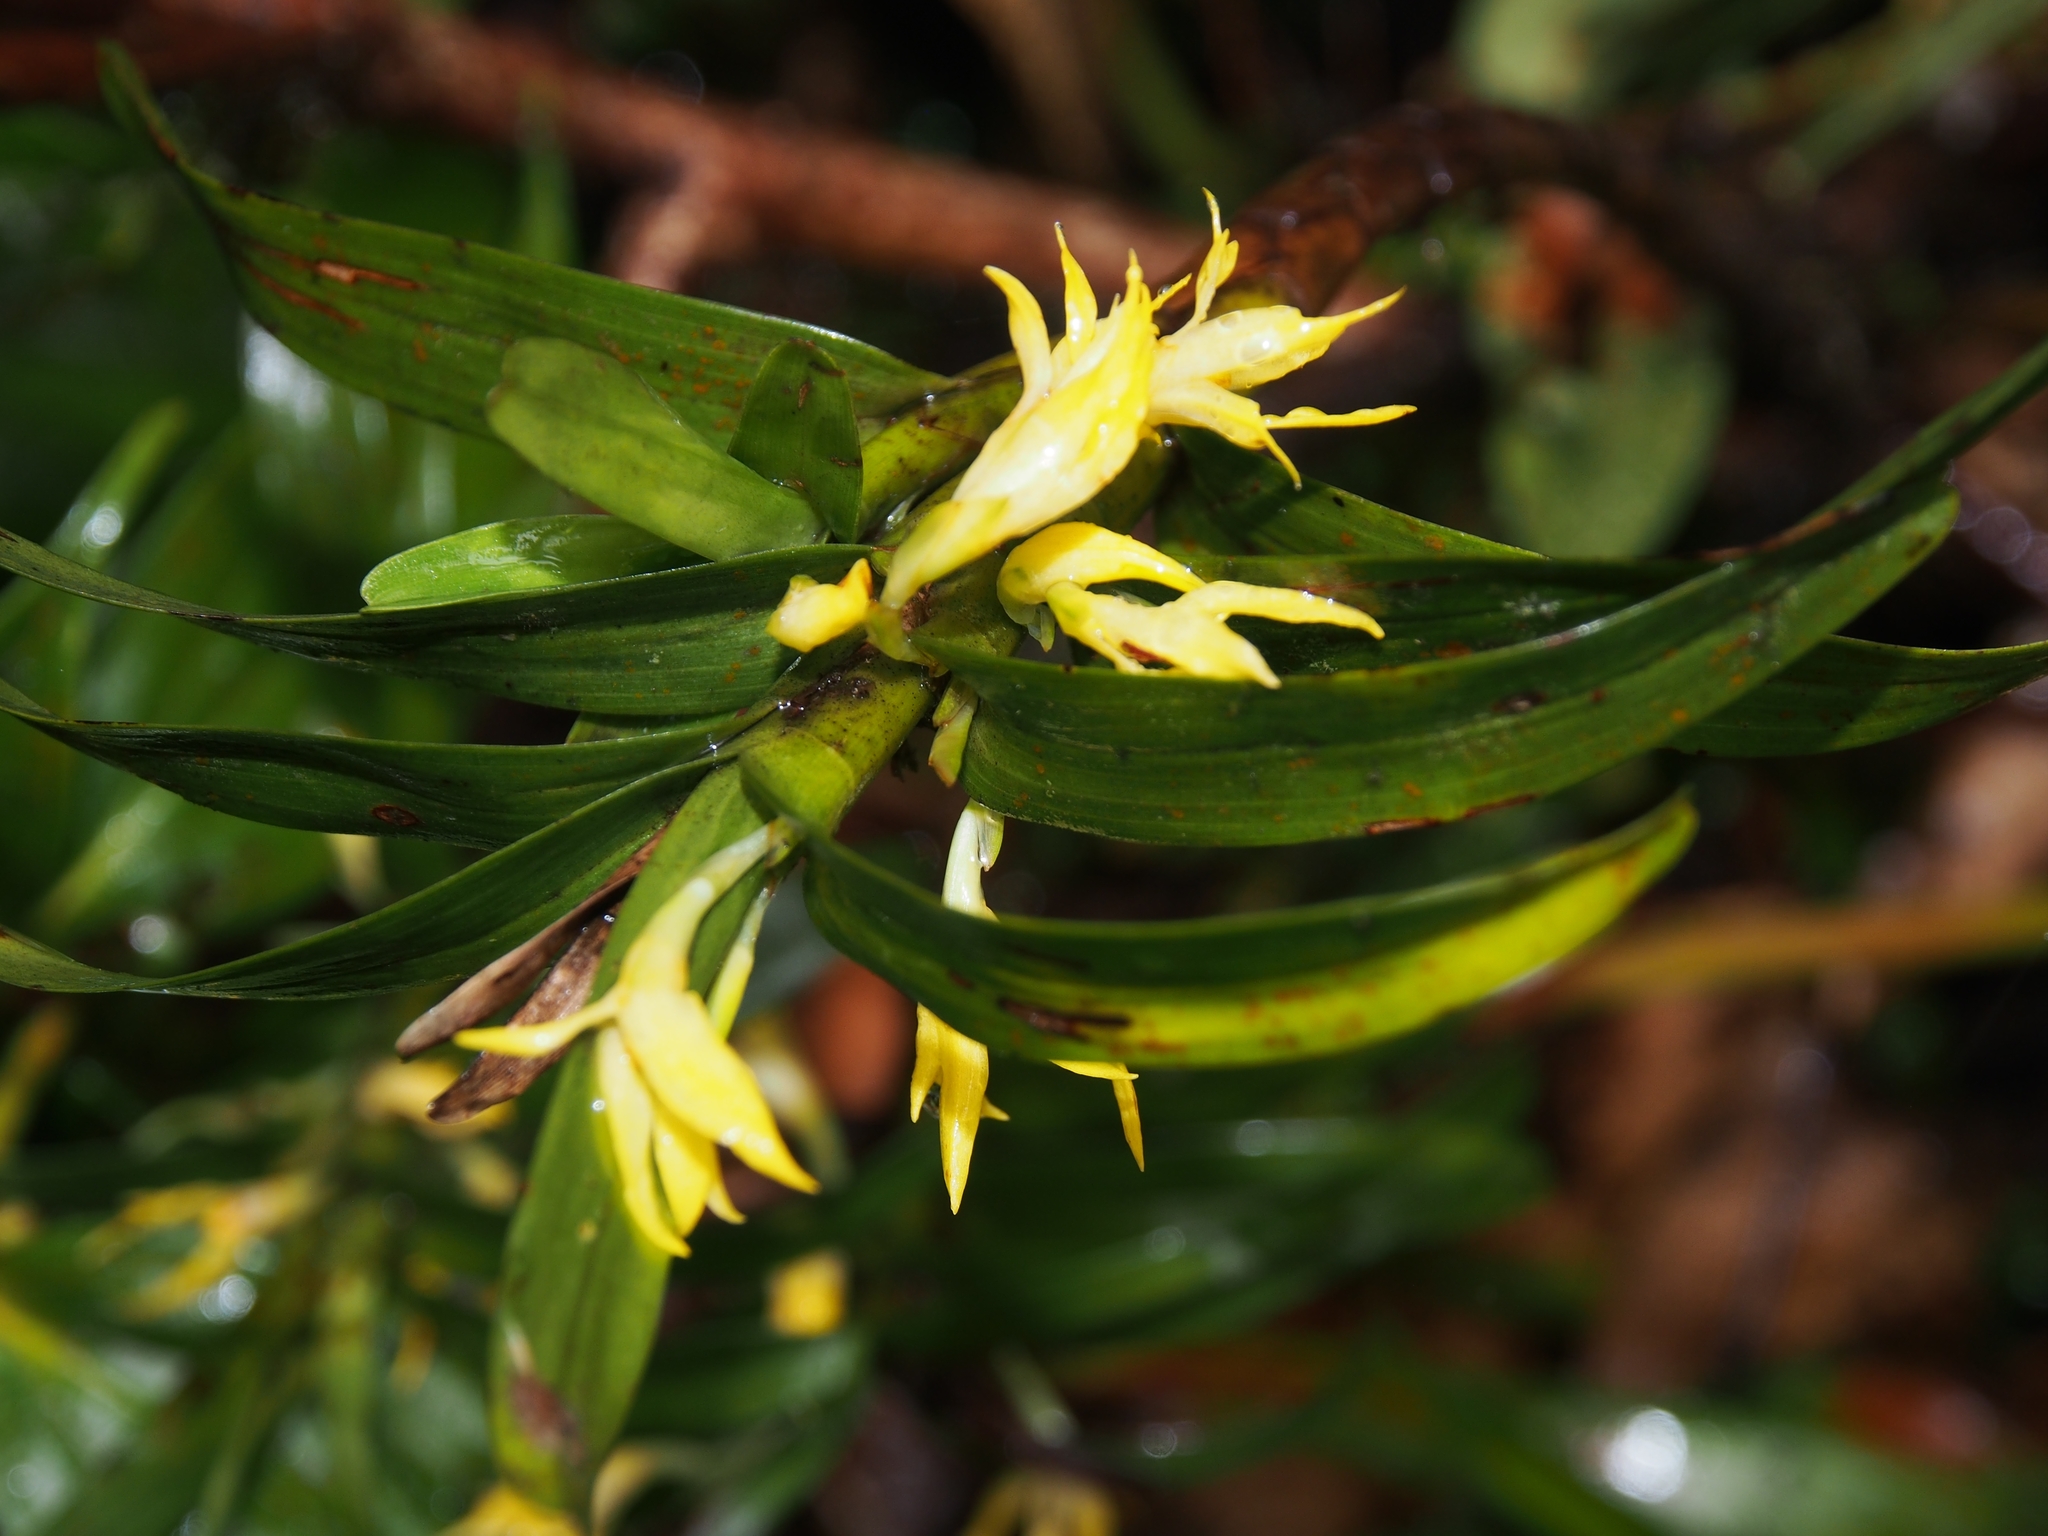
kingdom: Plantae
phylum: Tracheophyta
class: Liliopsida
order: Asparagales
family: Orchidaceae
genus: Maxillaria
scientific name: Maxillaria parvilabia
